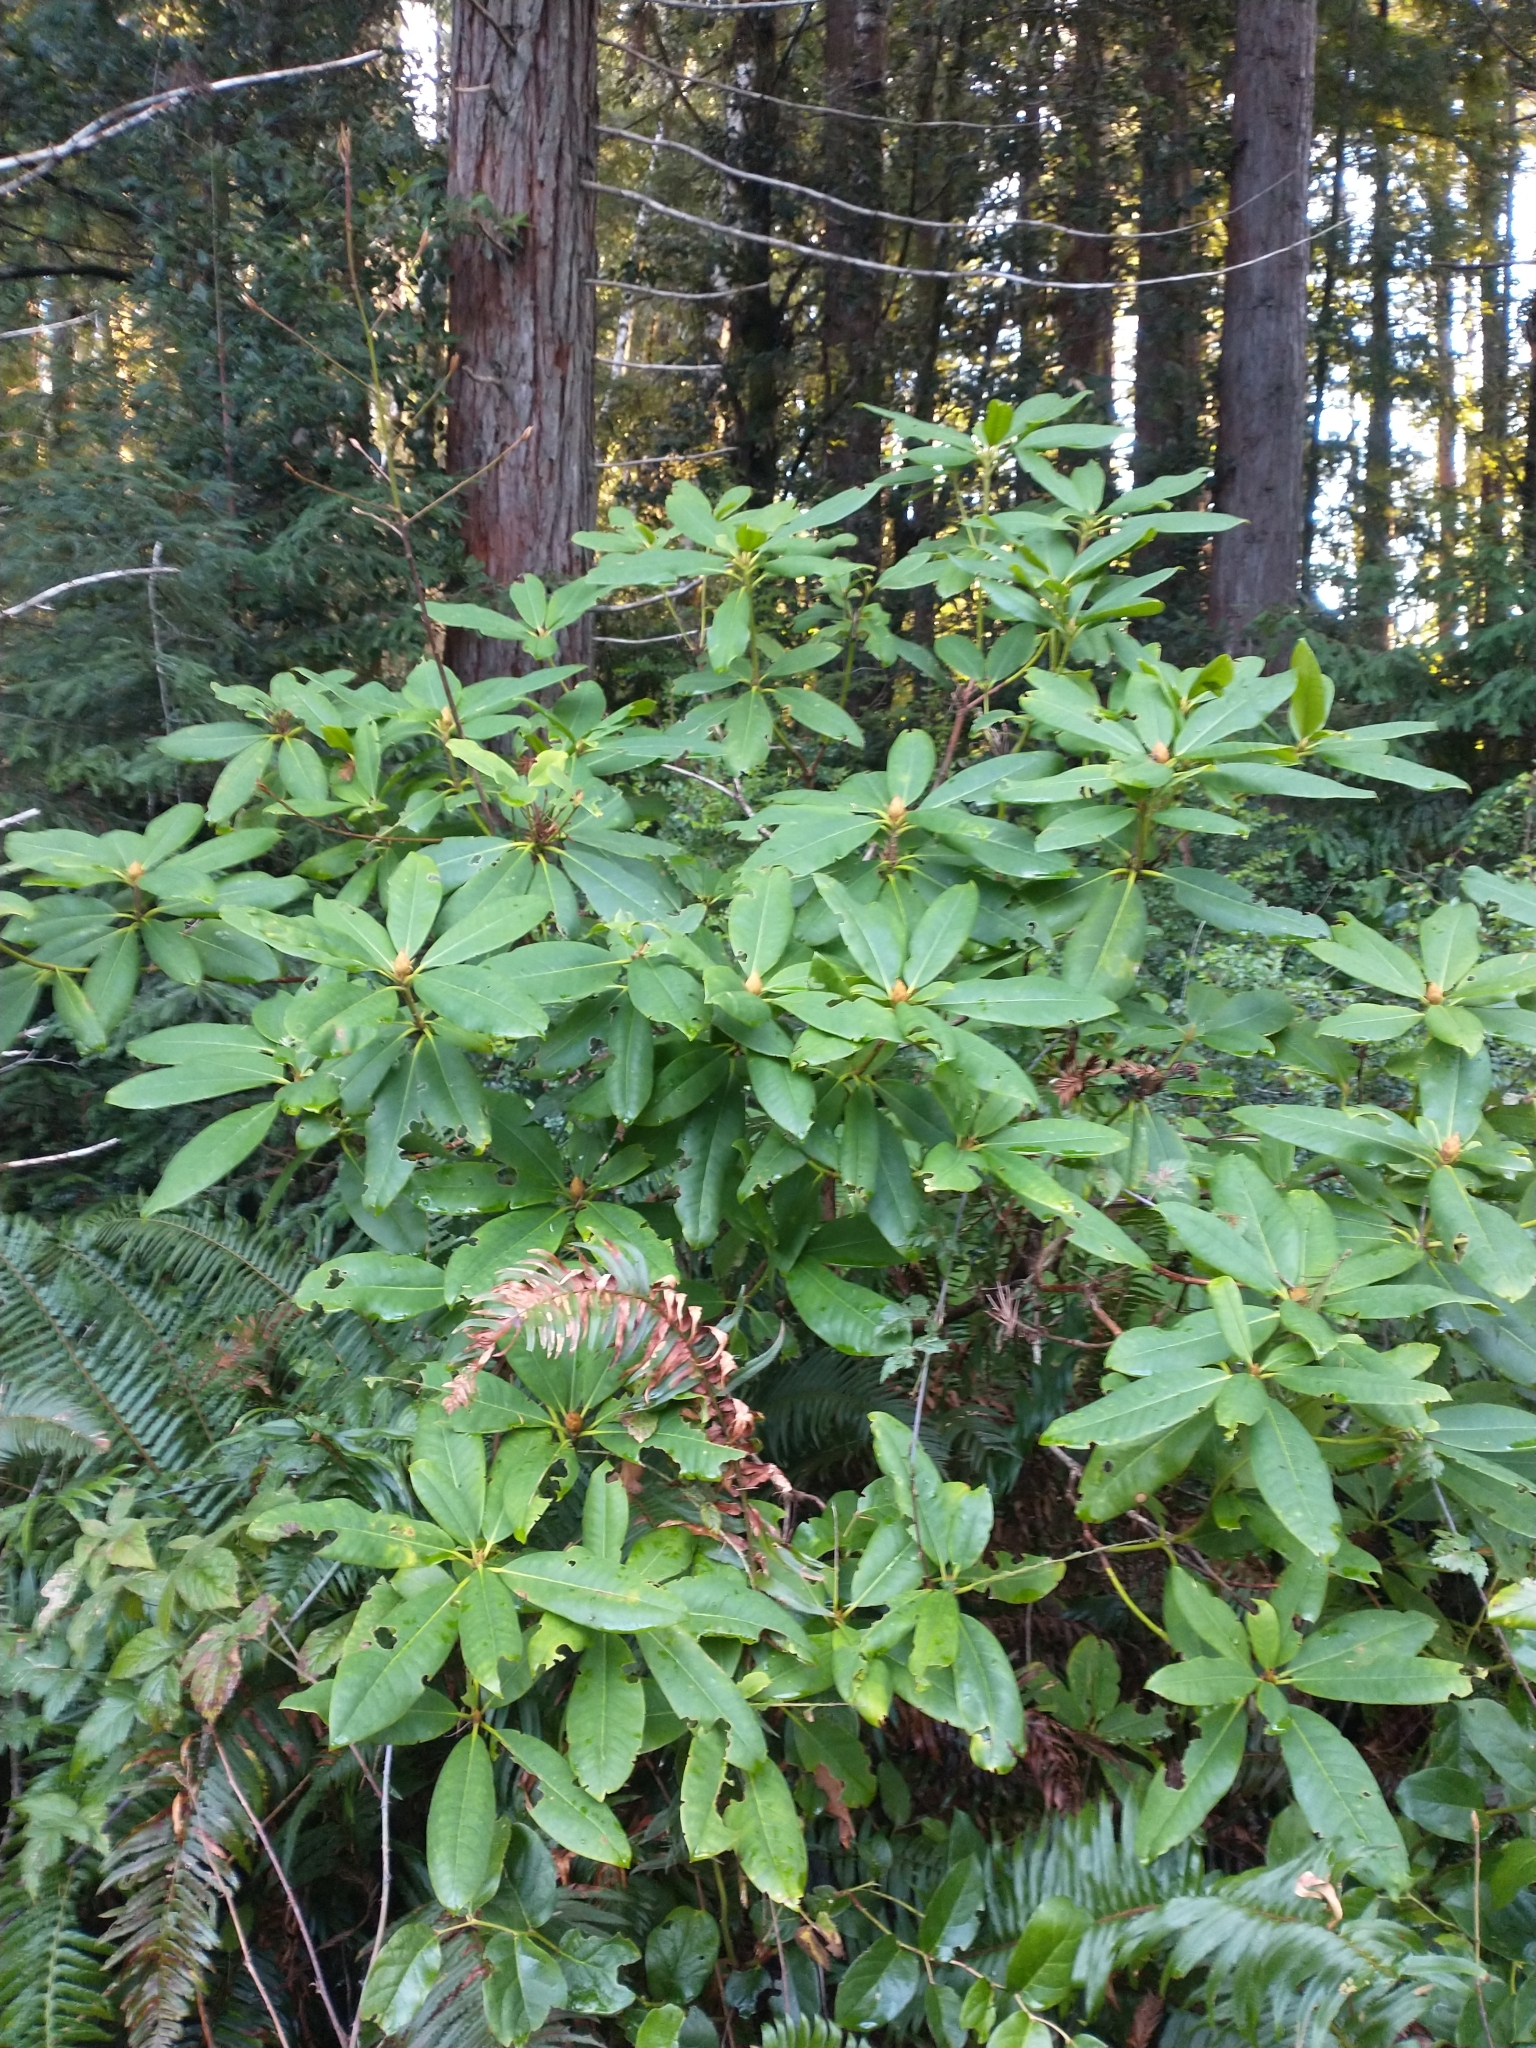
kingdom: Plantae
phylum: Tracheophyta
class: Magnoliopsida
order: Ericales
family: Ericaceae
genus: Rhododendron
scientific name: Rhododendron macrophyllum
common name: California rose bay
